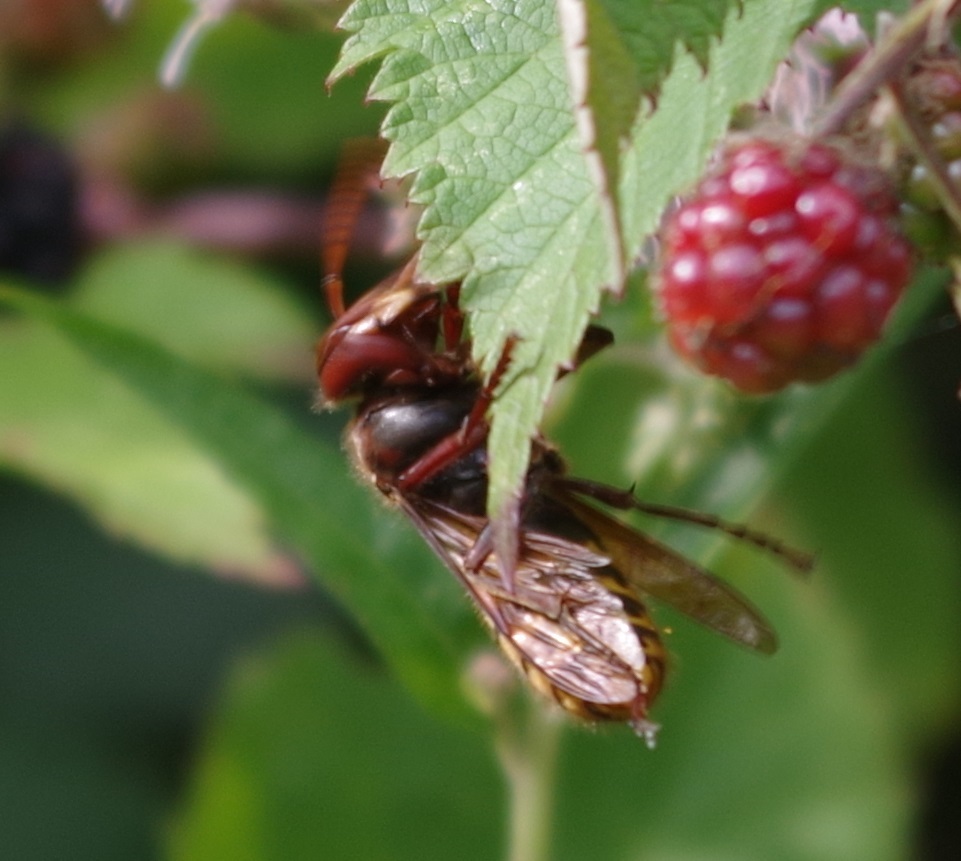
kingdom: Animalia
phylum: Arthropoda
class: Insecta
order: Hymenoptera
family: Vespidae
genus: Vespa
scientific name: Vespa crabro
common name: Hornet
